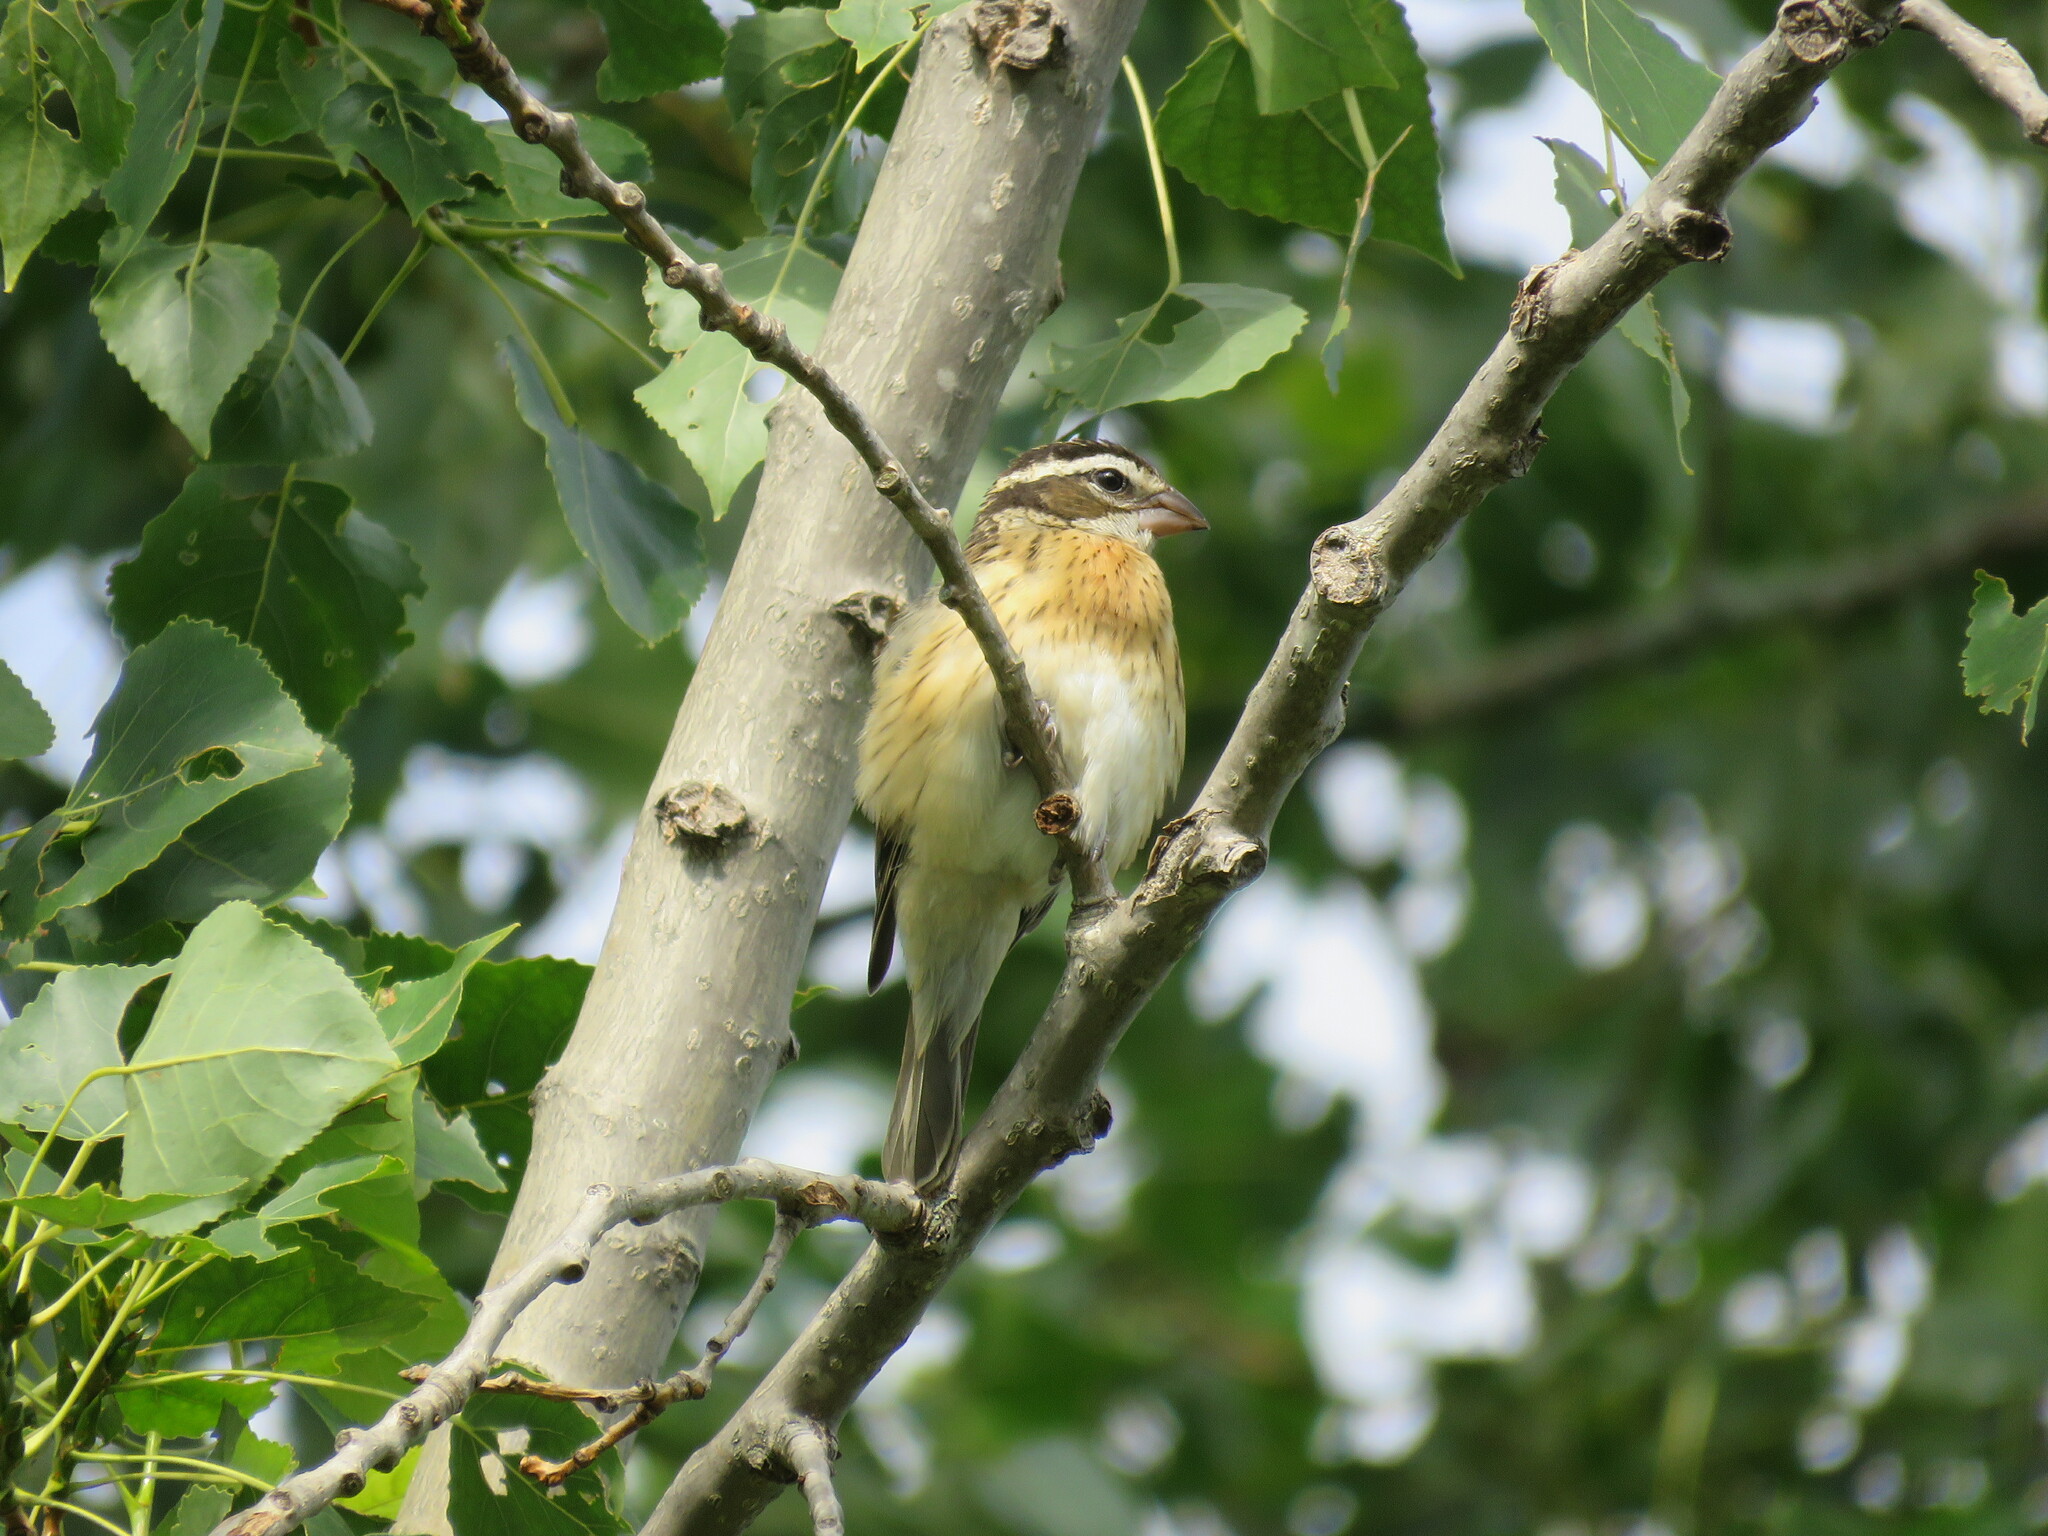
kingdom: Animalia
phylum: Chordata
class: Aves
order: Passeriformes
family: Cardinalidae
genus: Pheucticus
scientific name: Pheucticus ludovicianus
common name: Rose-breasted grosbeak
